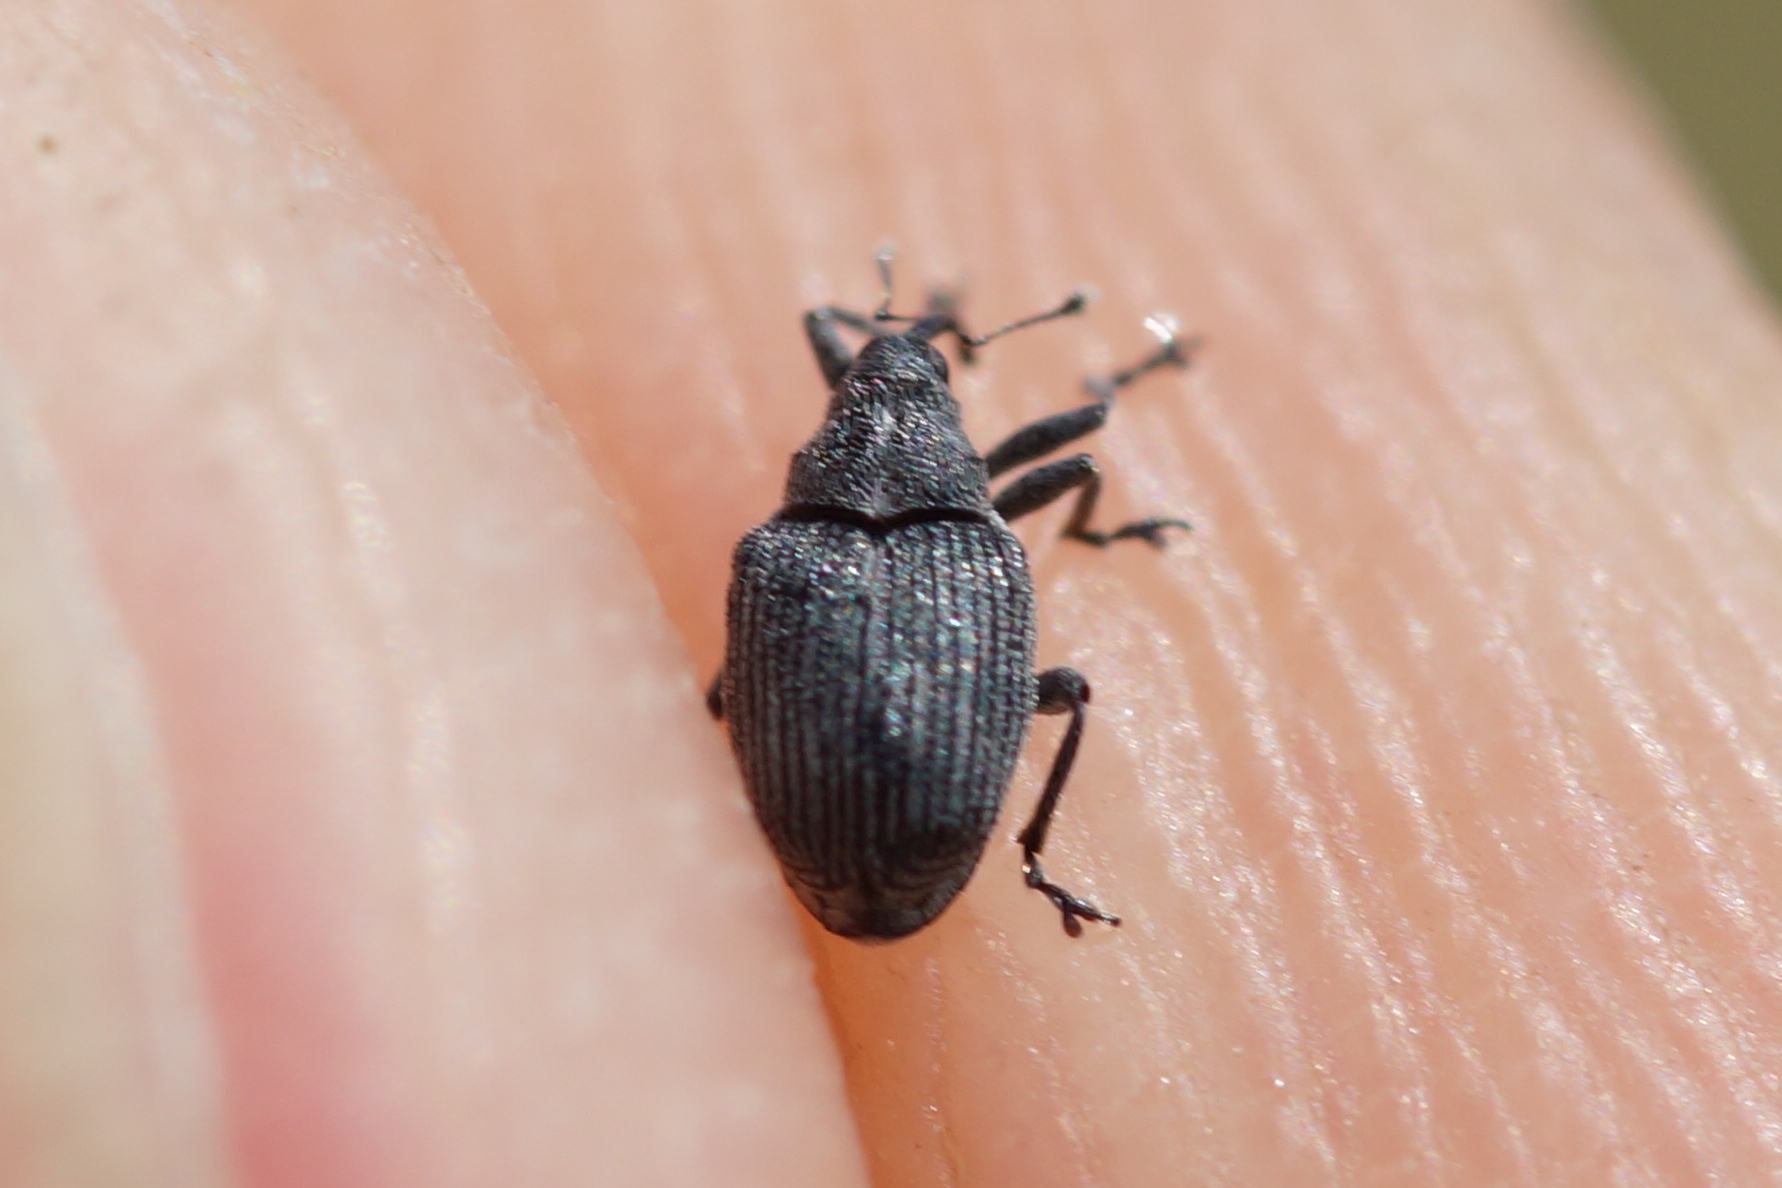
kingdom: Animalia
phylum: Arthropoda
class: Insecta
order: Coleoptera
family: Curculionidae
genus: Ceutorhynchus
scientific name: Ceutorhynchus obstrictus
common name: Cabbage seed weevil
